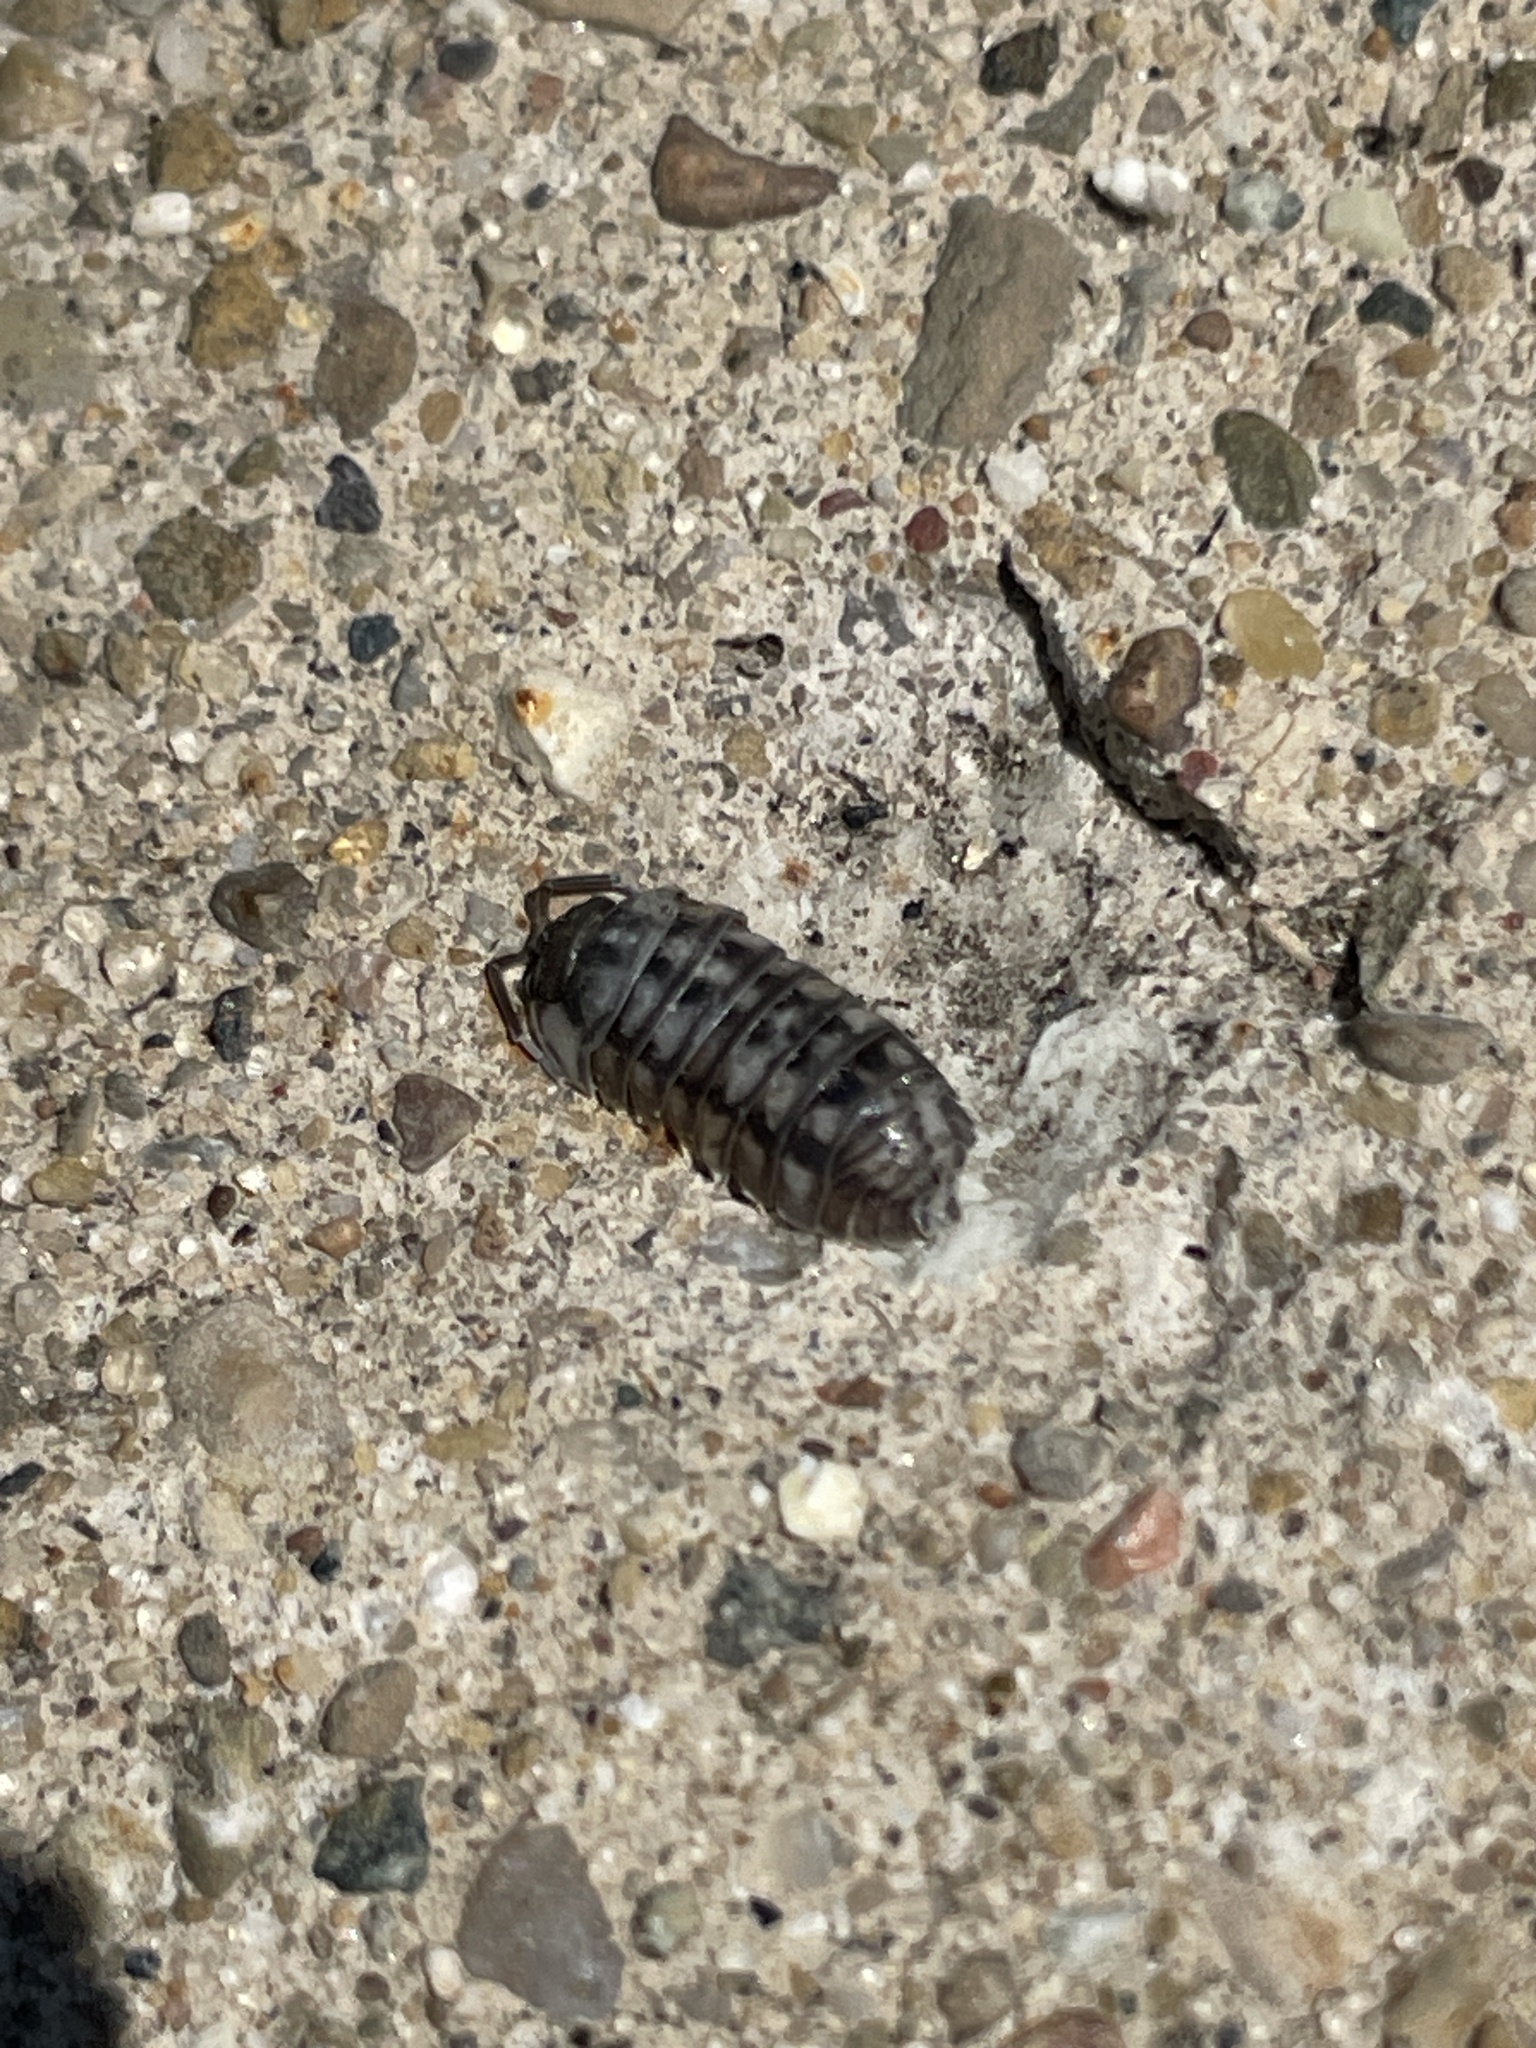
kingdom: Animalia
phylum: Arthropoda
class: Malacostraca
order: Isopoda
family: Armadillidiidae
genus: Armadillidium
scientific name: Armadillidium nasatum
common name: Isopod
